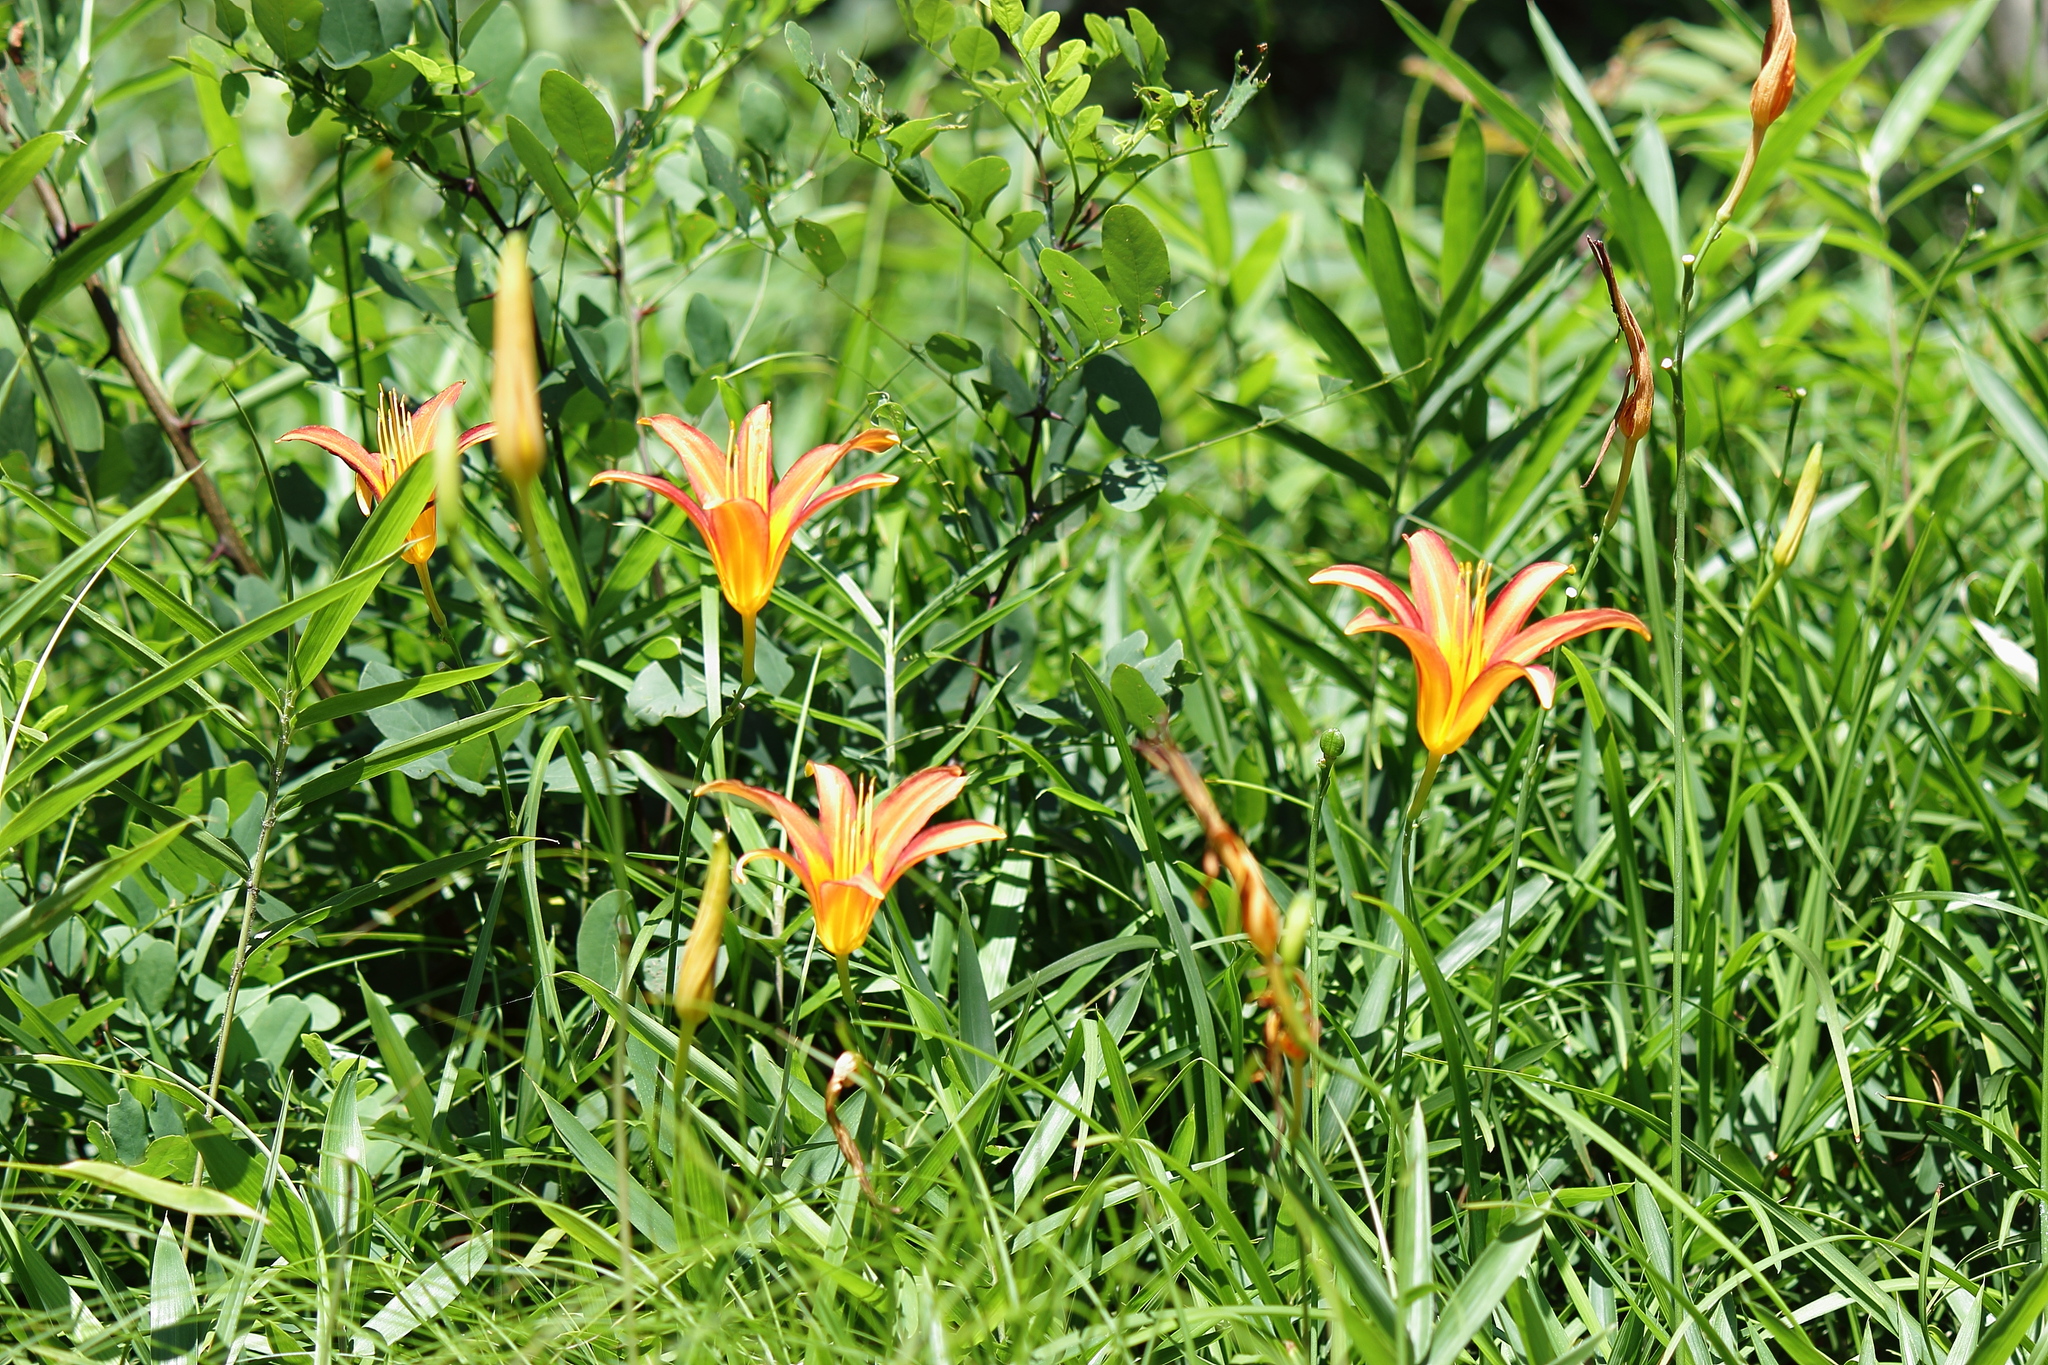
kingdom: Plantae
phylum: Tracheophyta
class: Liliopsida
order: Asparagales
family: Asphodelaceae
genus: Hemerocallis
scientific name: Hemerocallis fulva
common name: Orange day-lily
